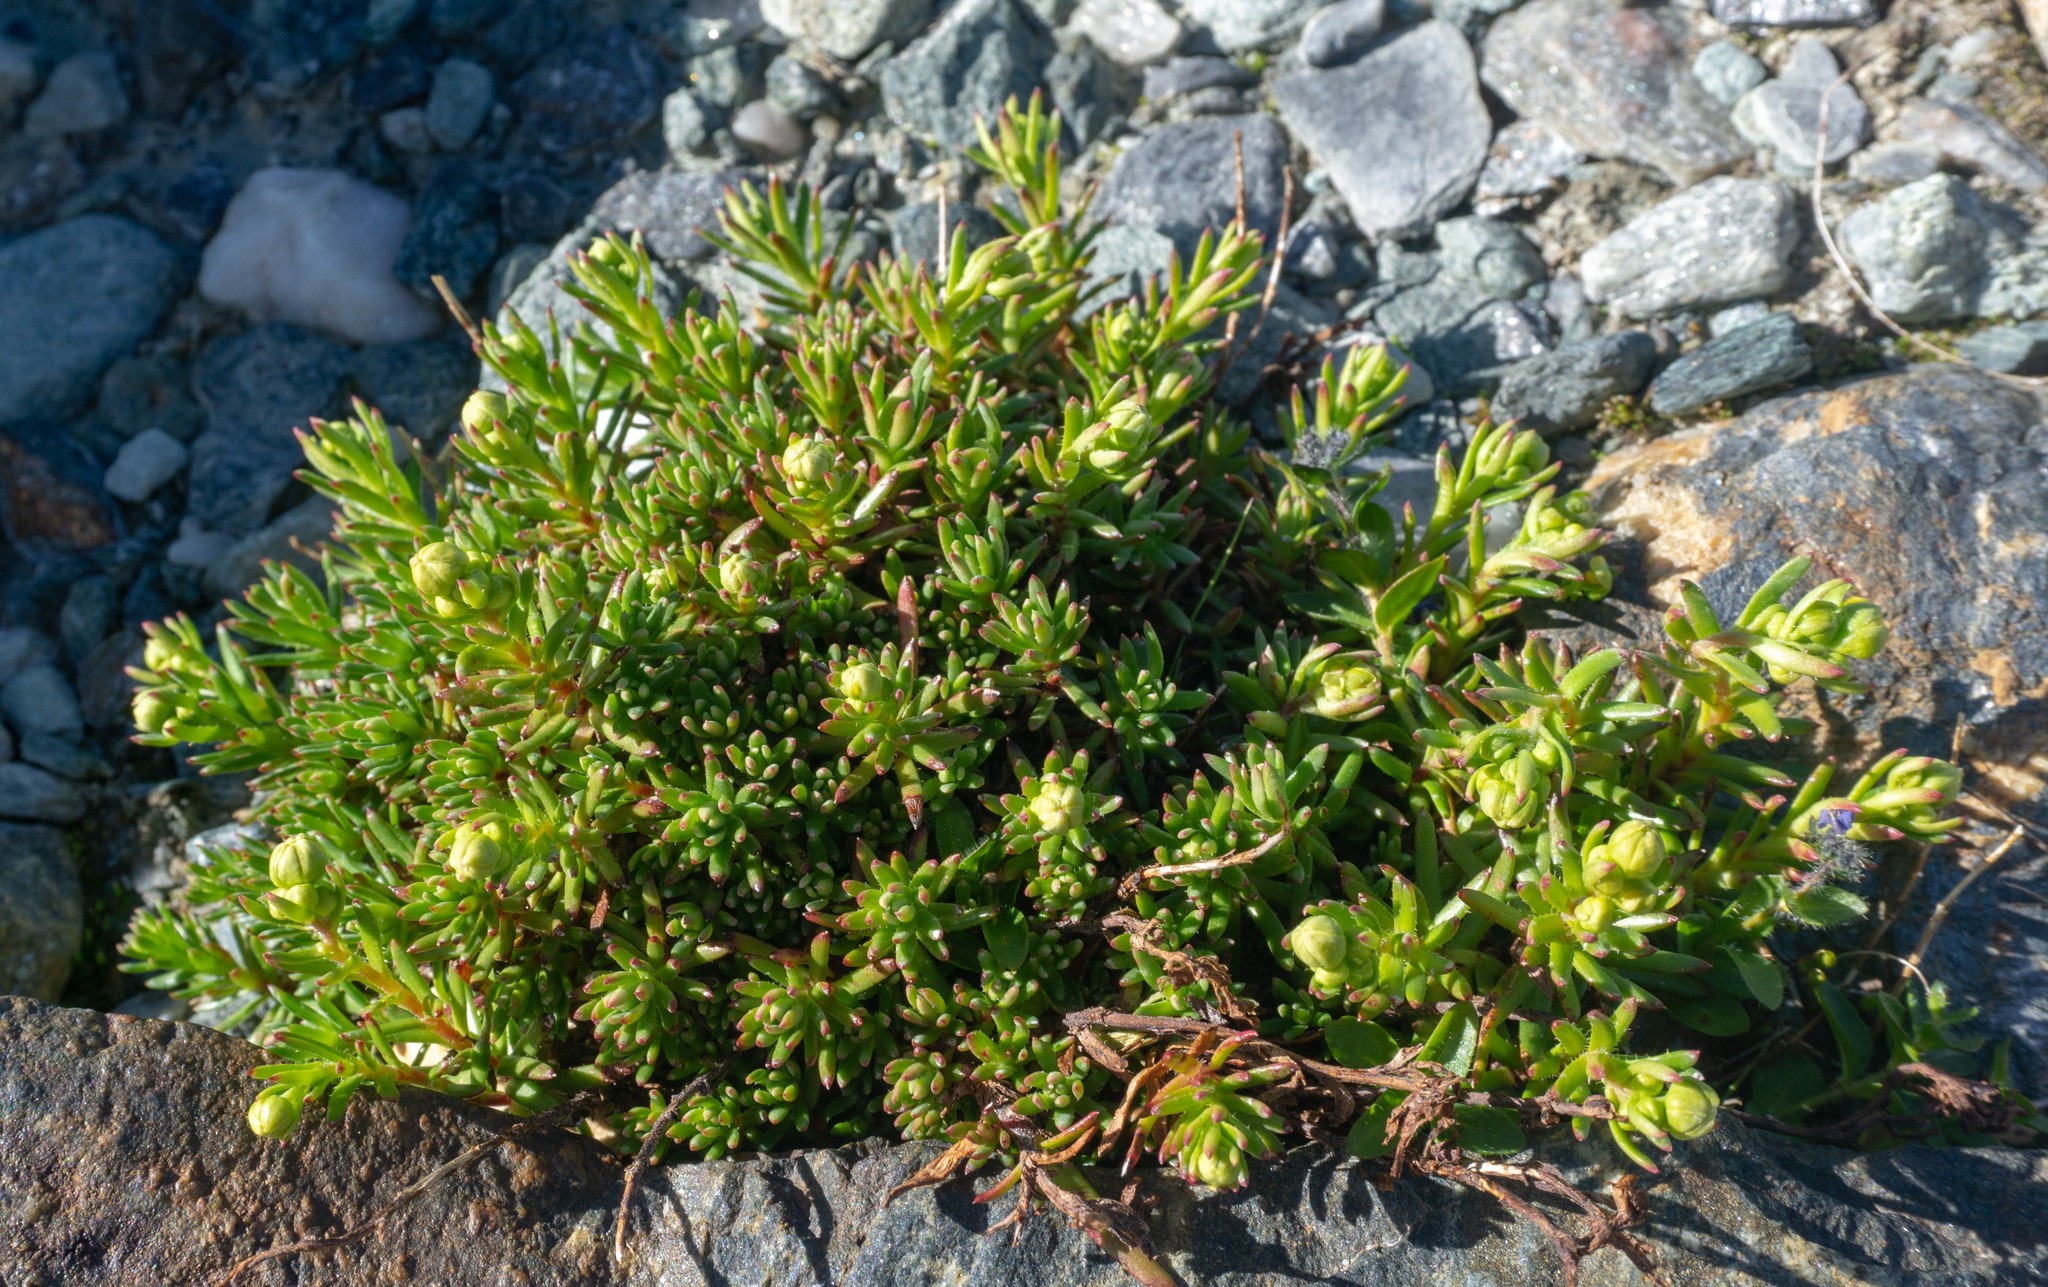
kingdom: Plantae
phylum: Tracheophyta
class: Magnoliopsida
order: Saxifragales
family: Saxifragaceae
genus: Saxifraga
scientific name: Saxifraga aizoides
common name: Yellow mountain saxifrage
